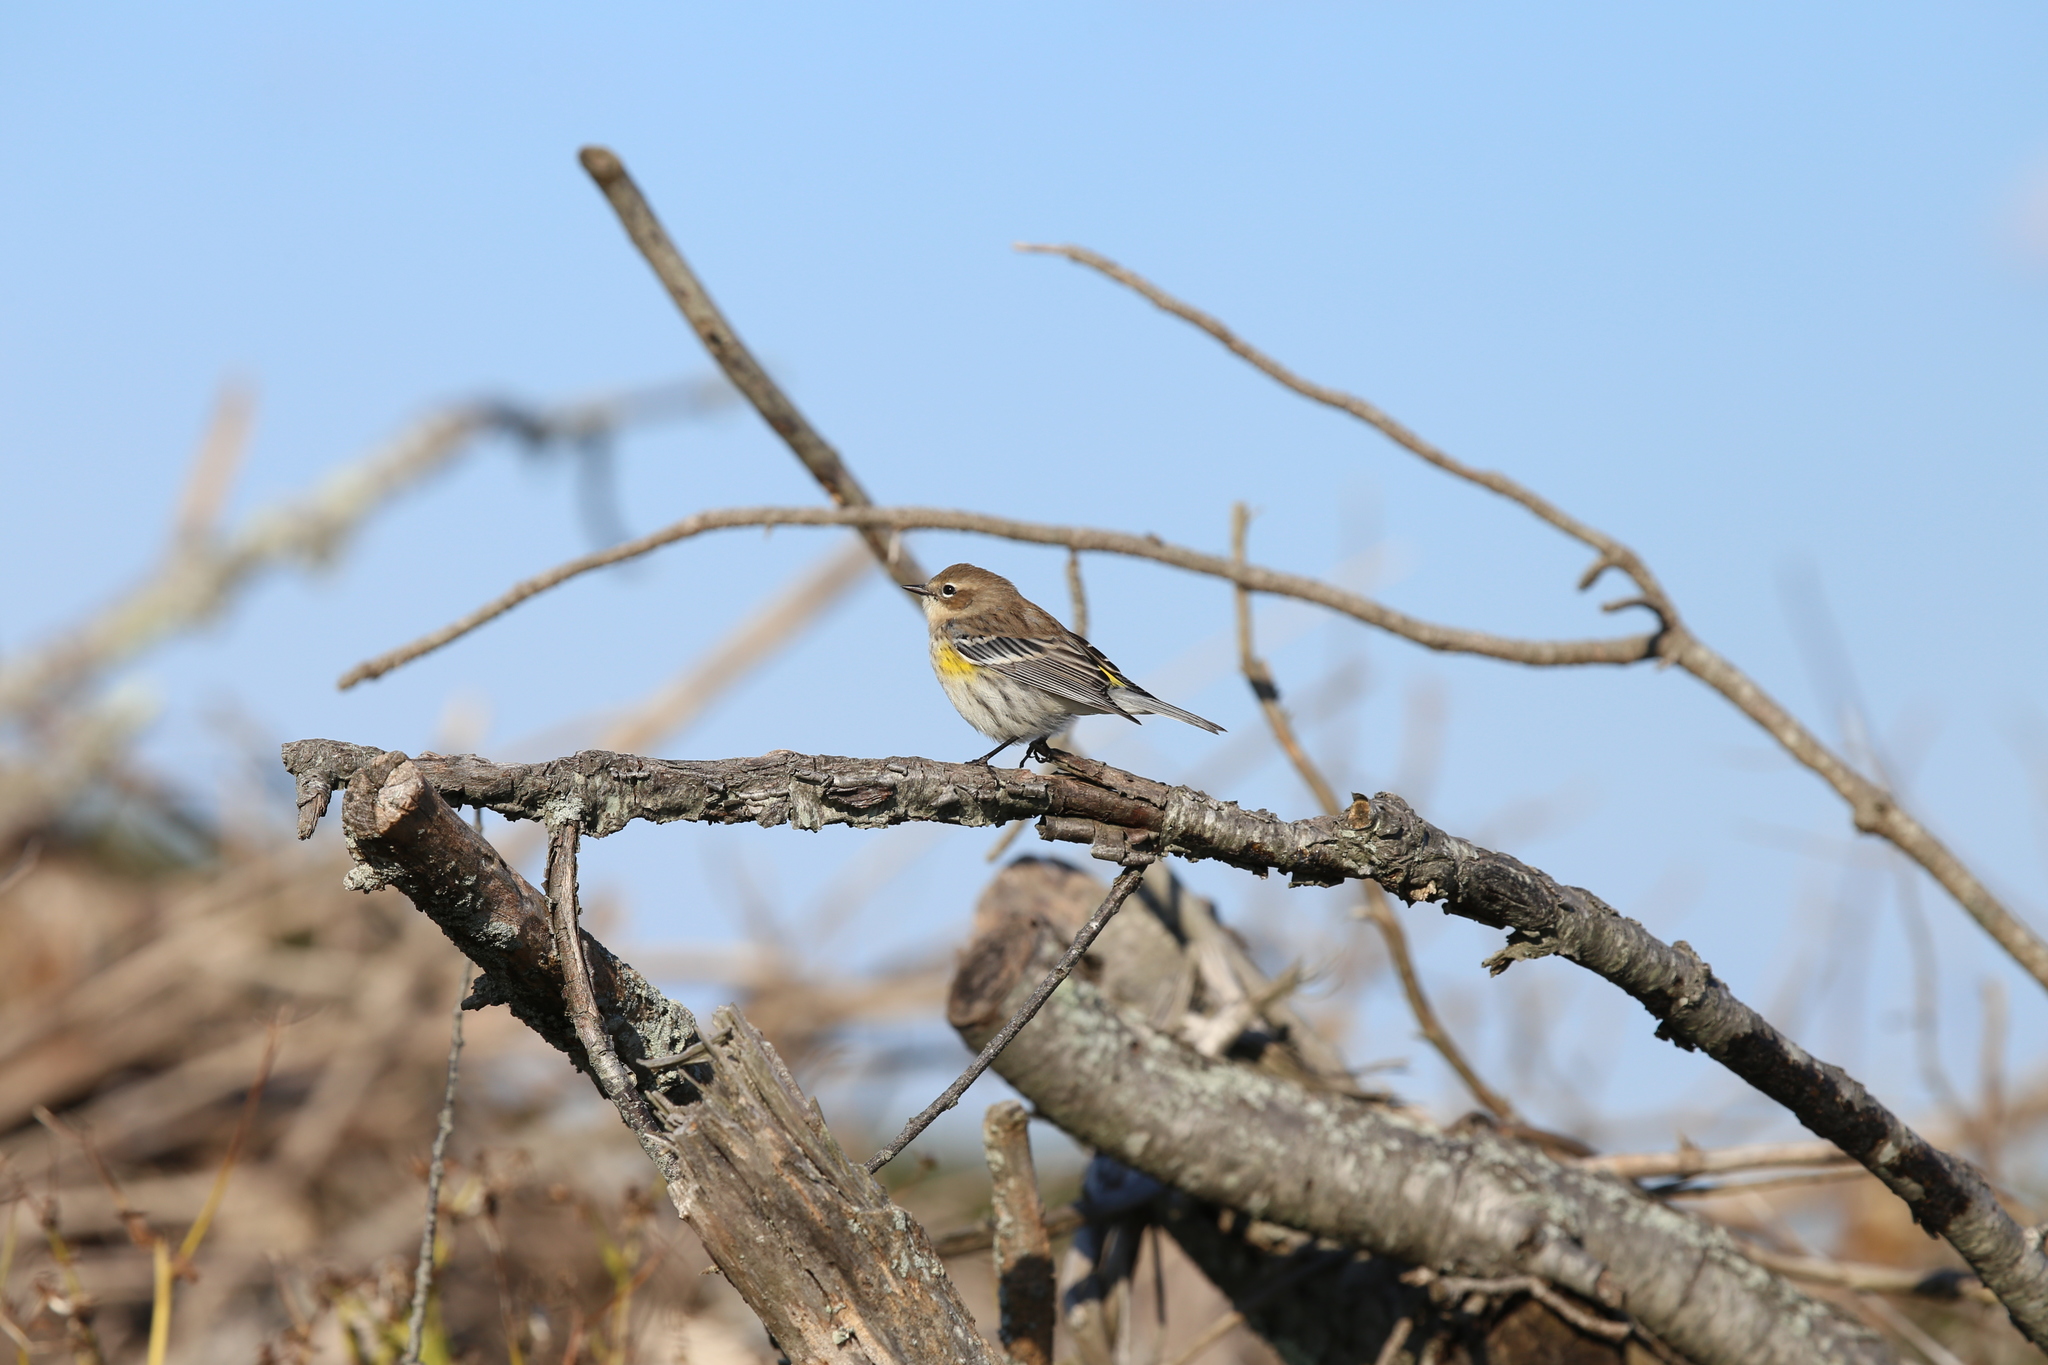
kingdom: Animalia
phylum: Chordata
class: Aves
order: Passeriformes
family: Parulidae
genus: Setophaga
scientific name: Setophaga coronata
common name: Myrtle warbler
